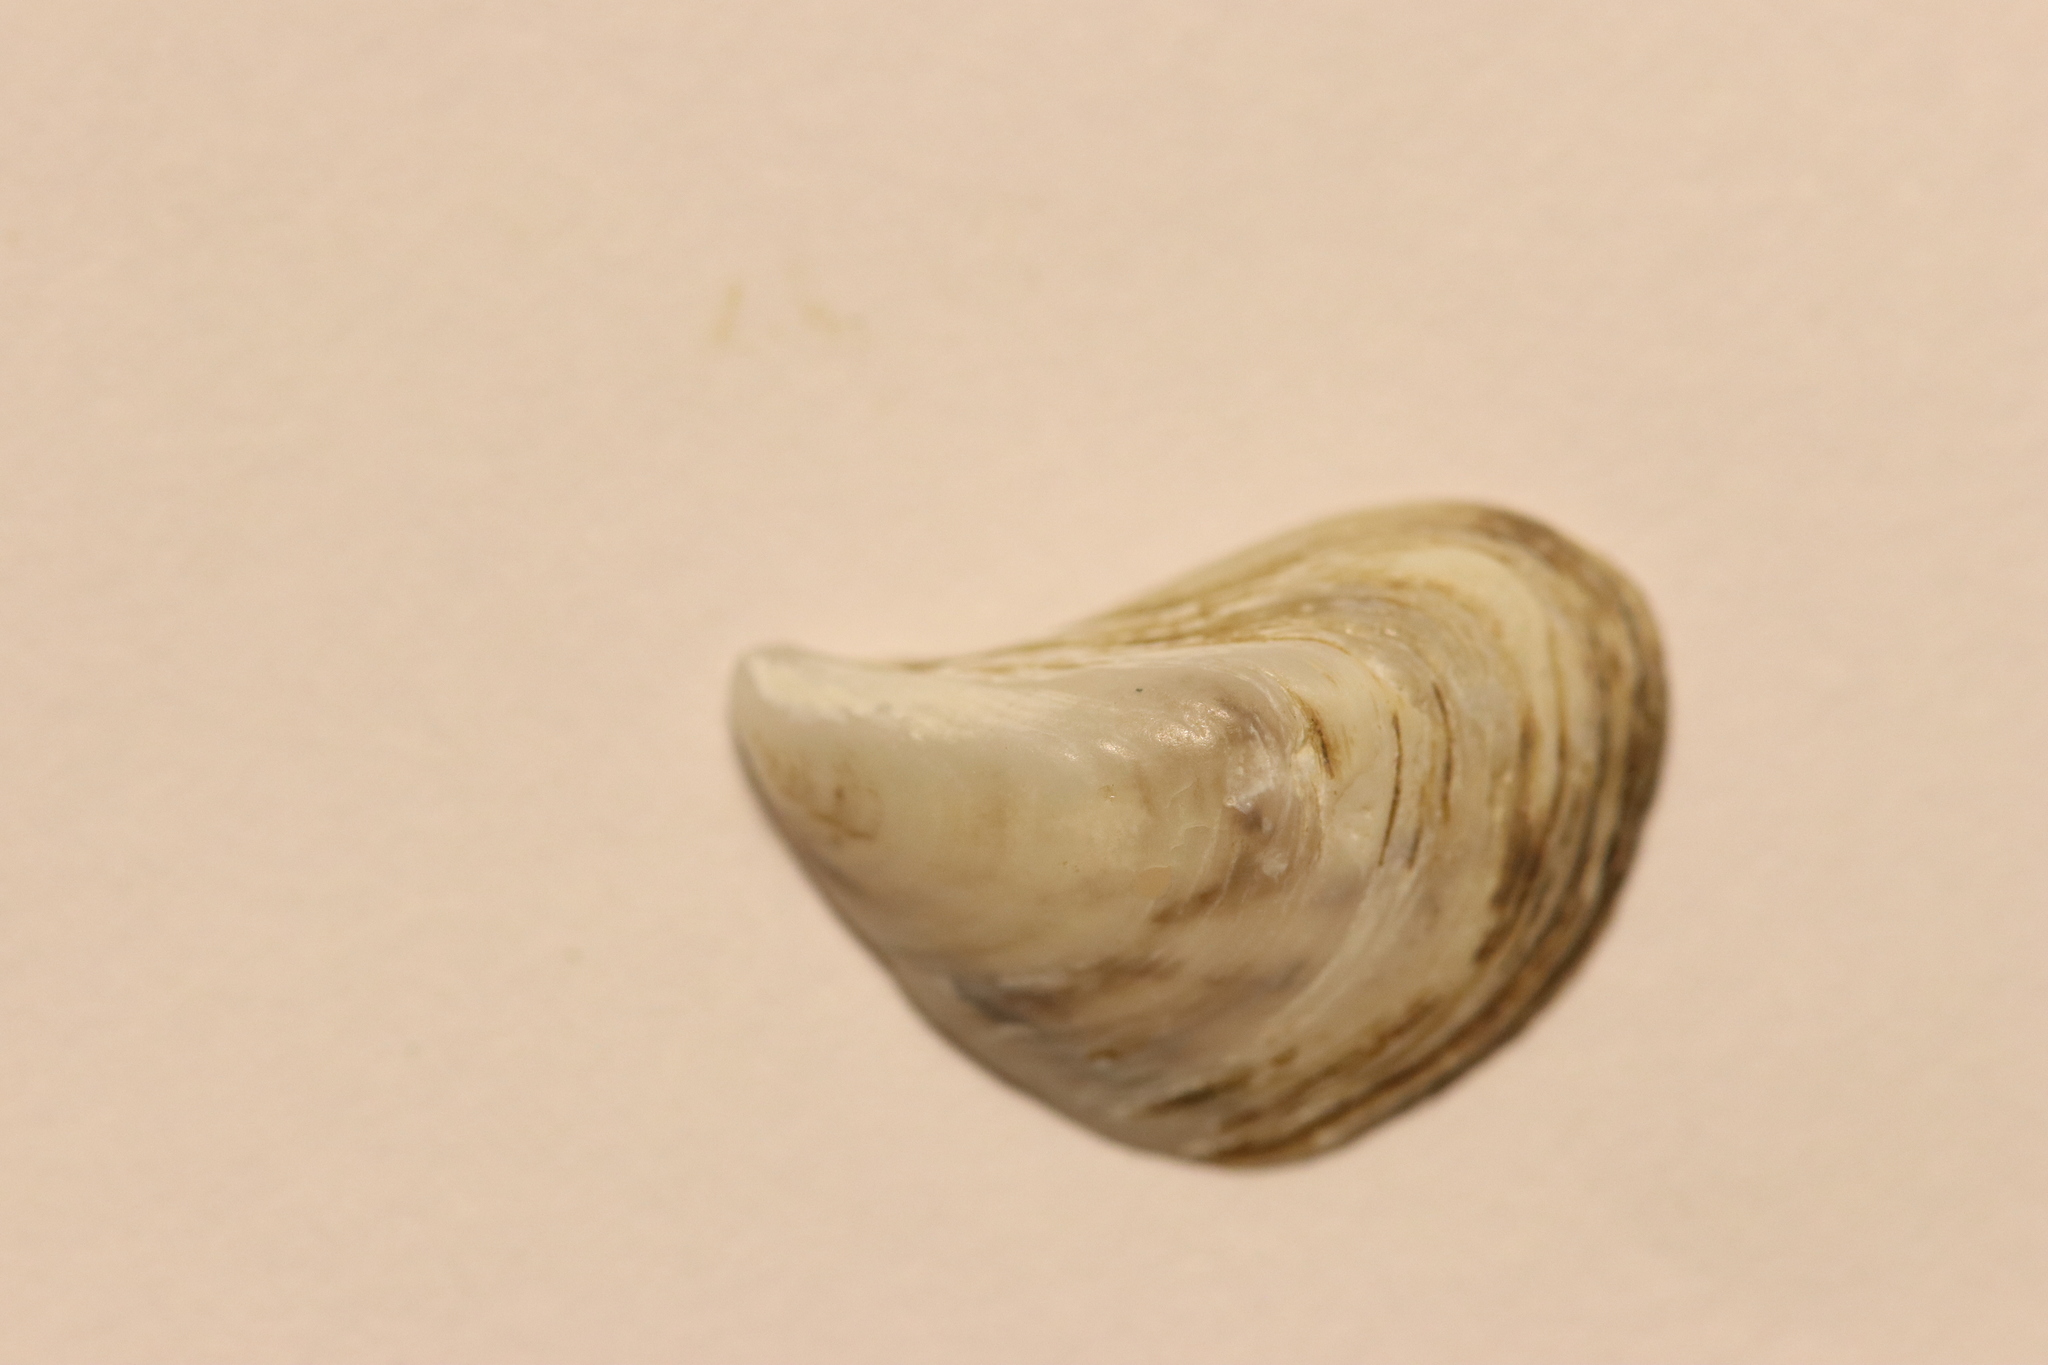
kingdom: Animalia
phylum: Mollusca
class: Bivalvia
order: Myida
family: Dreissenidae
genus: Dreissena
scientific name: Dreissena bugensis
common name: Quagga mussel
